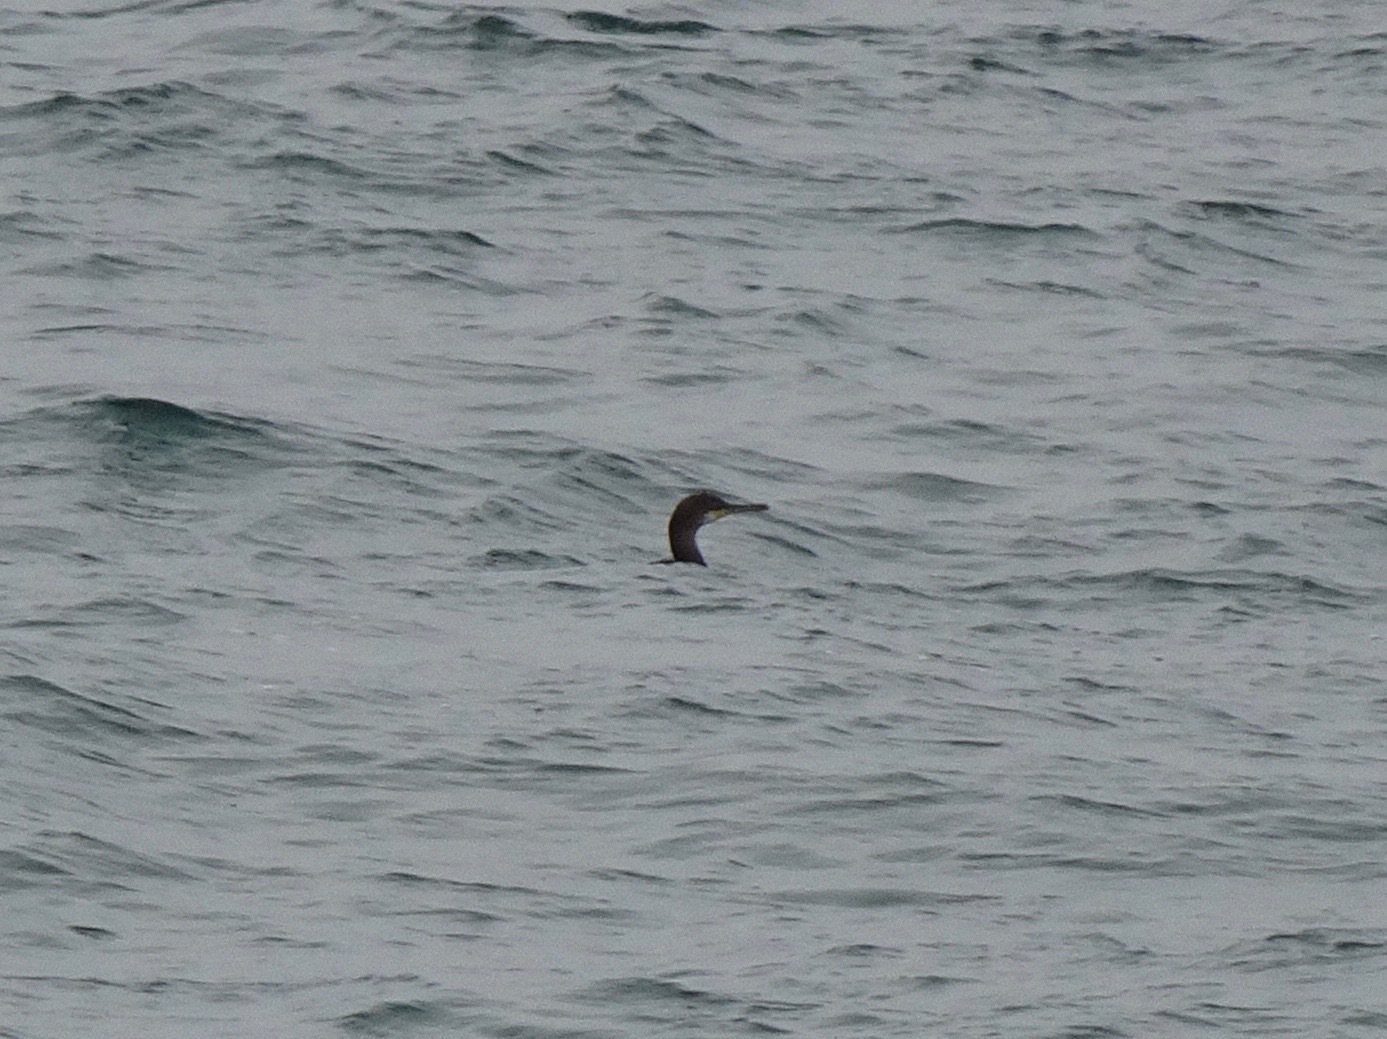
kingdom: Animalia
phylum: Chordata
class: Aves
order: Suliformes
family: Phalacrocoracidae
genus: Phalacrocorax
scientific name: Phalacrocorax aristotelis
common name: European shag
